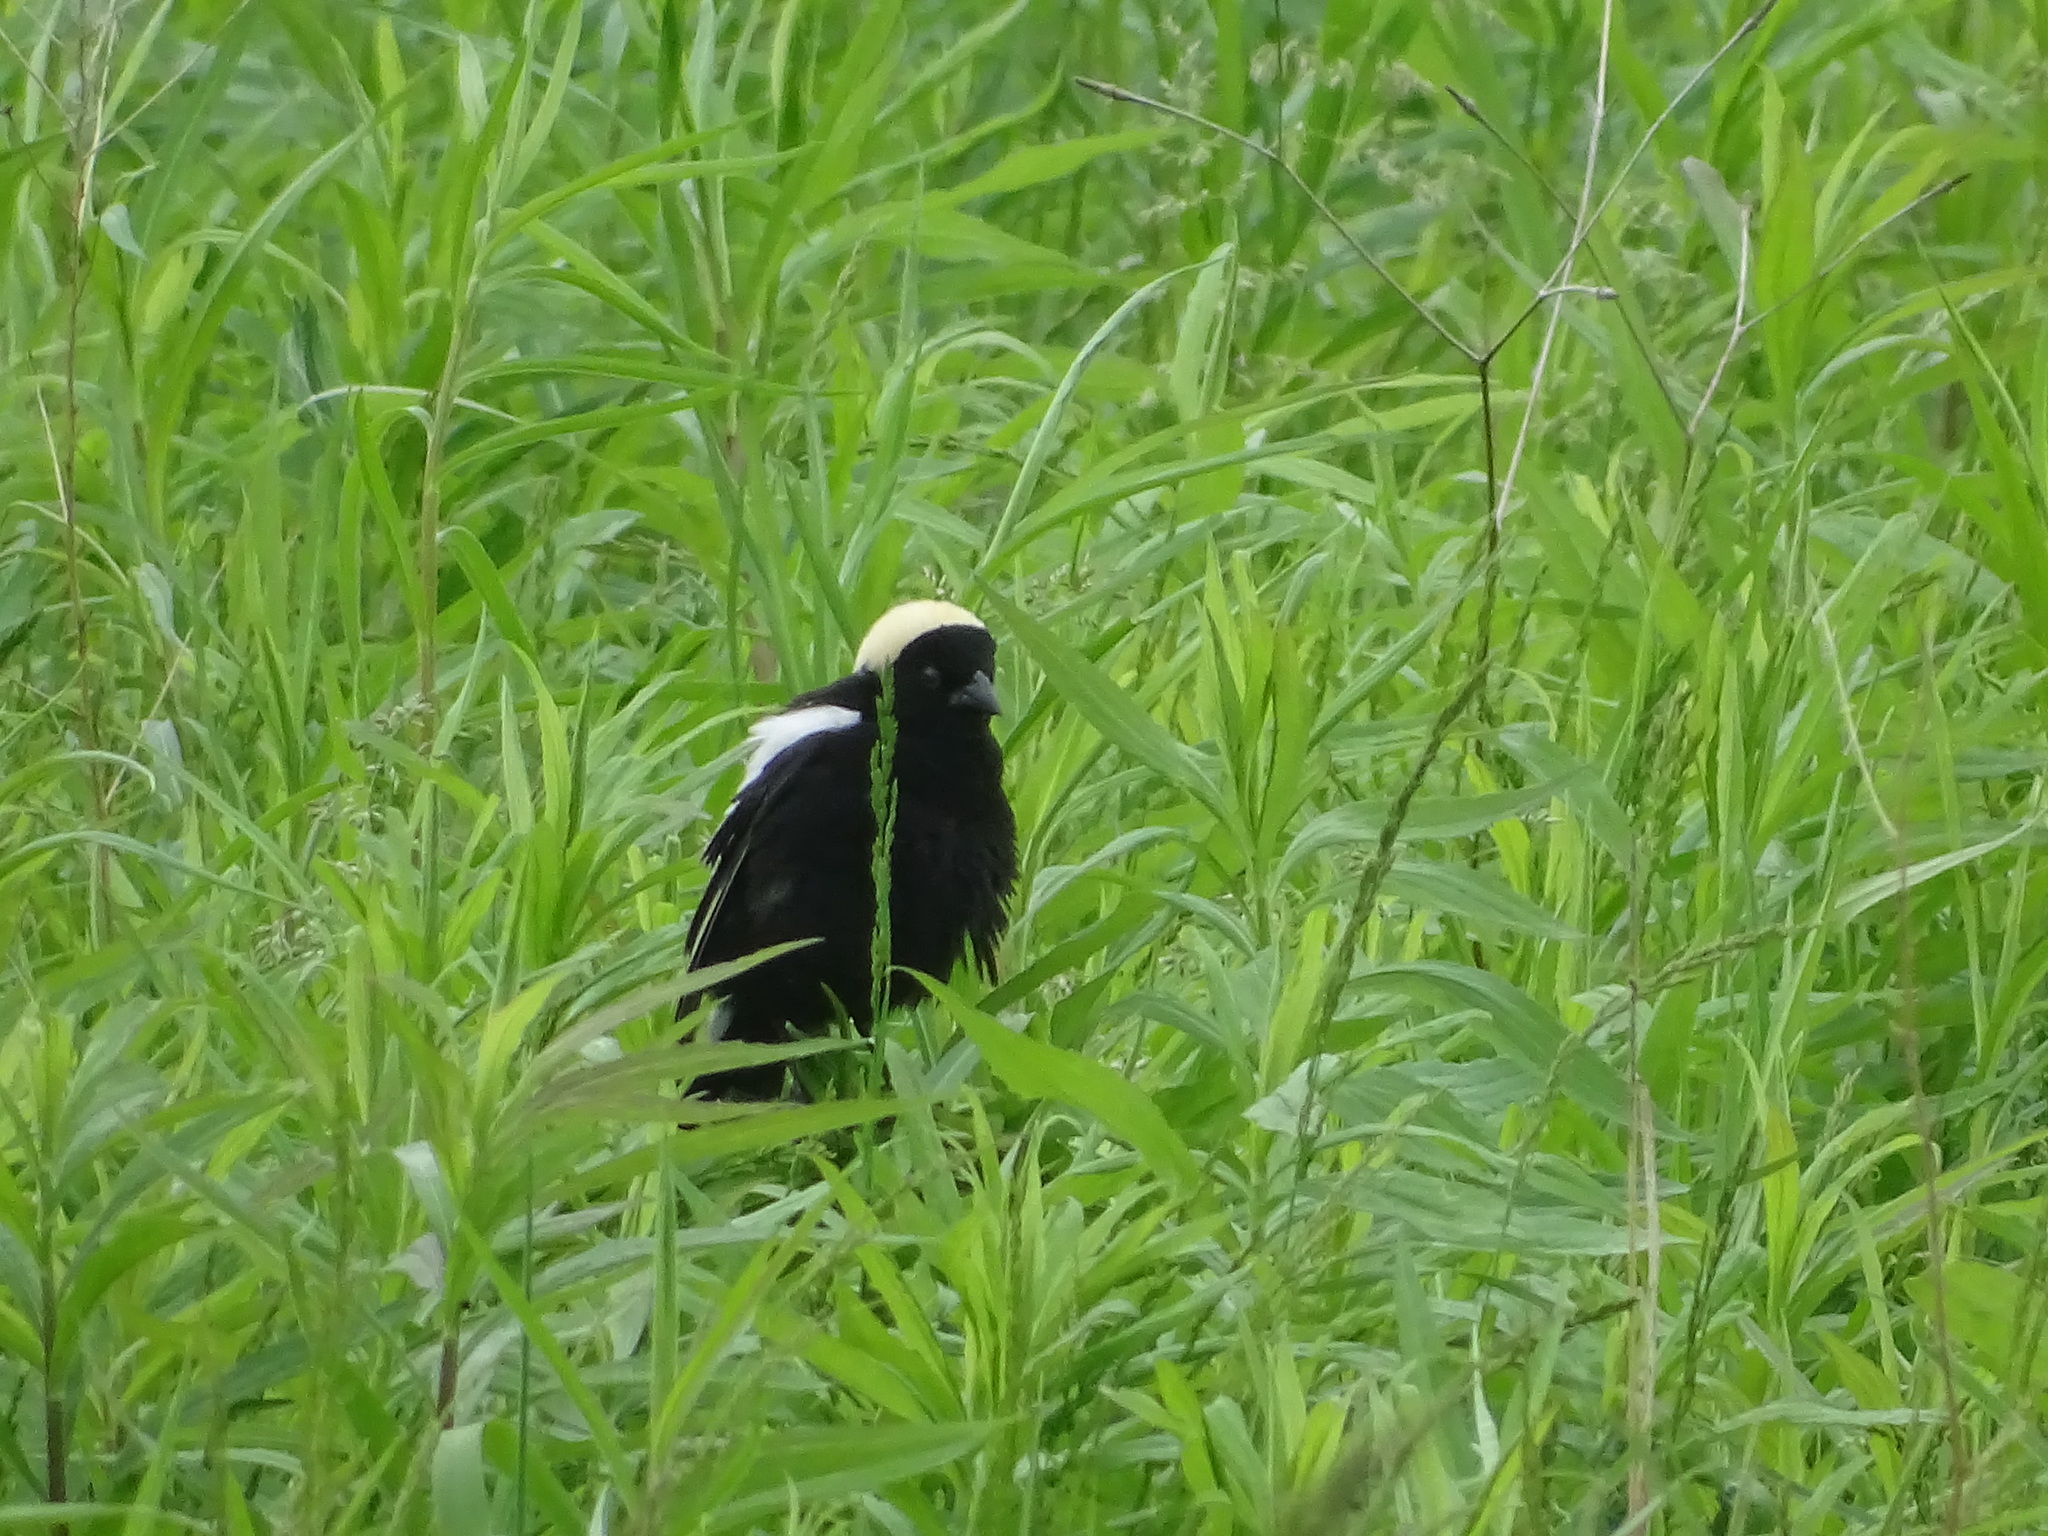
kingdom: Animalia
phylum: Chordata
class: Aves
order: Passeriformes
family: Icteridae
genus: Dolichonyx
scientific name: Dolichonyx oryzivorus
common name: Bobolink
